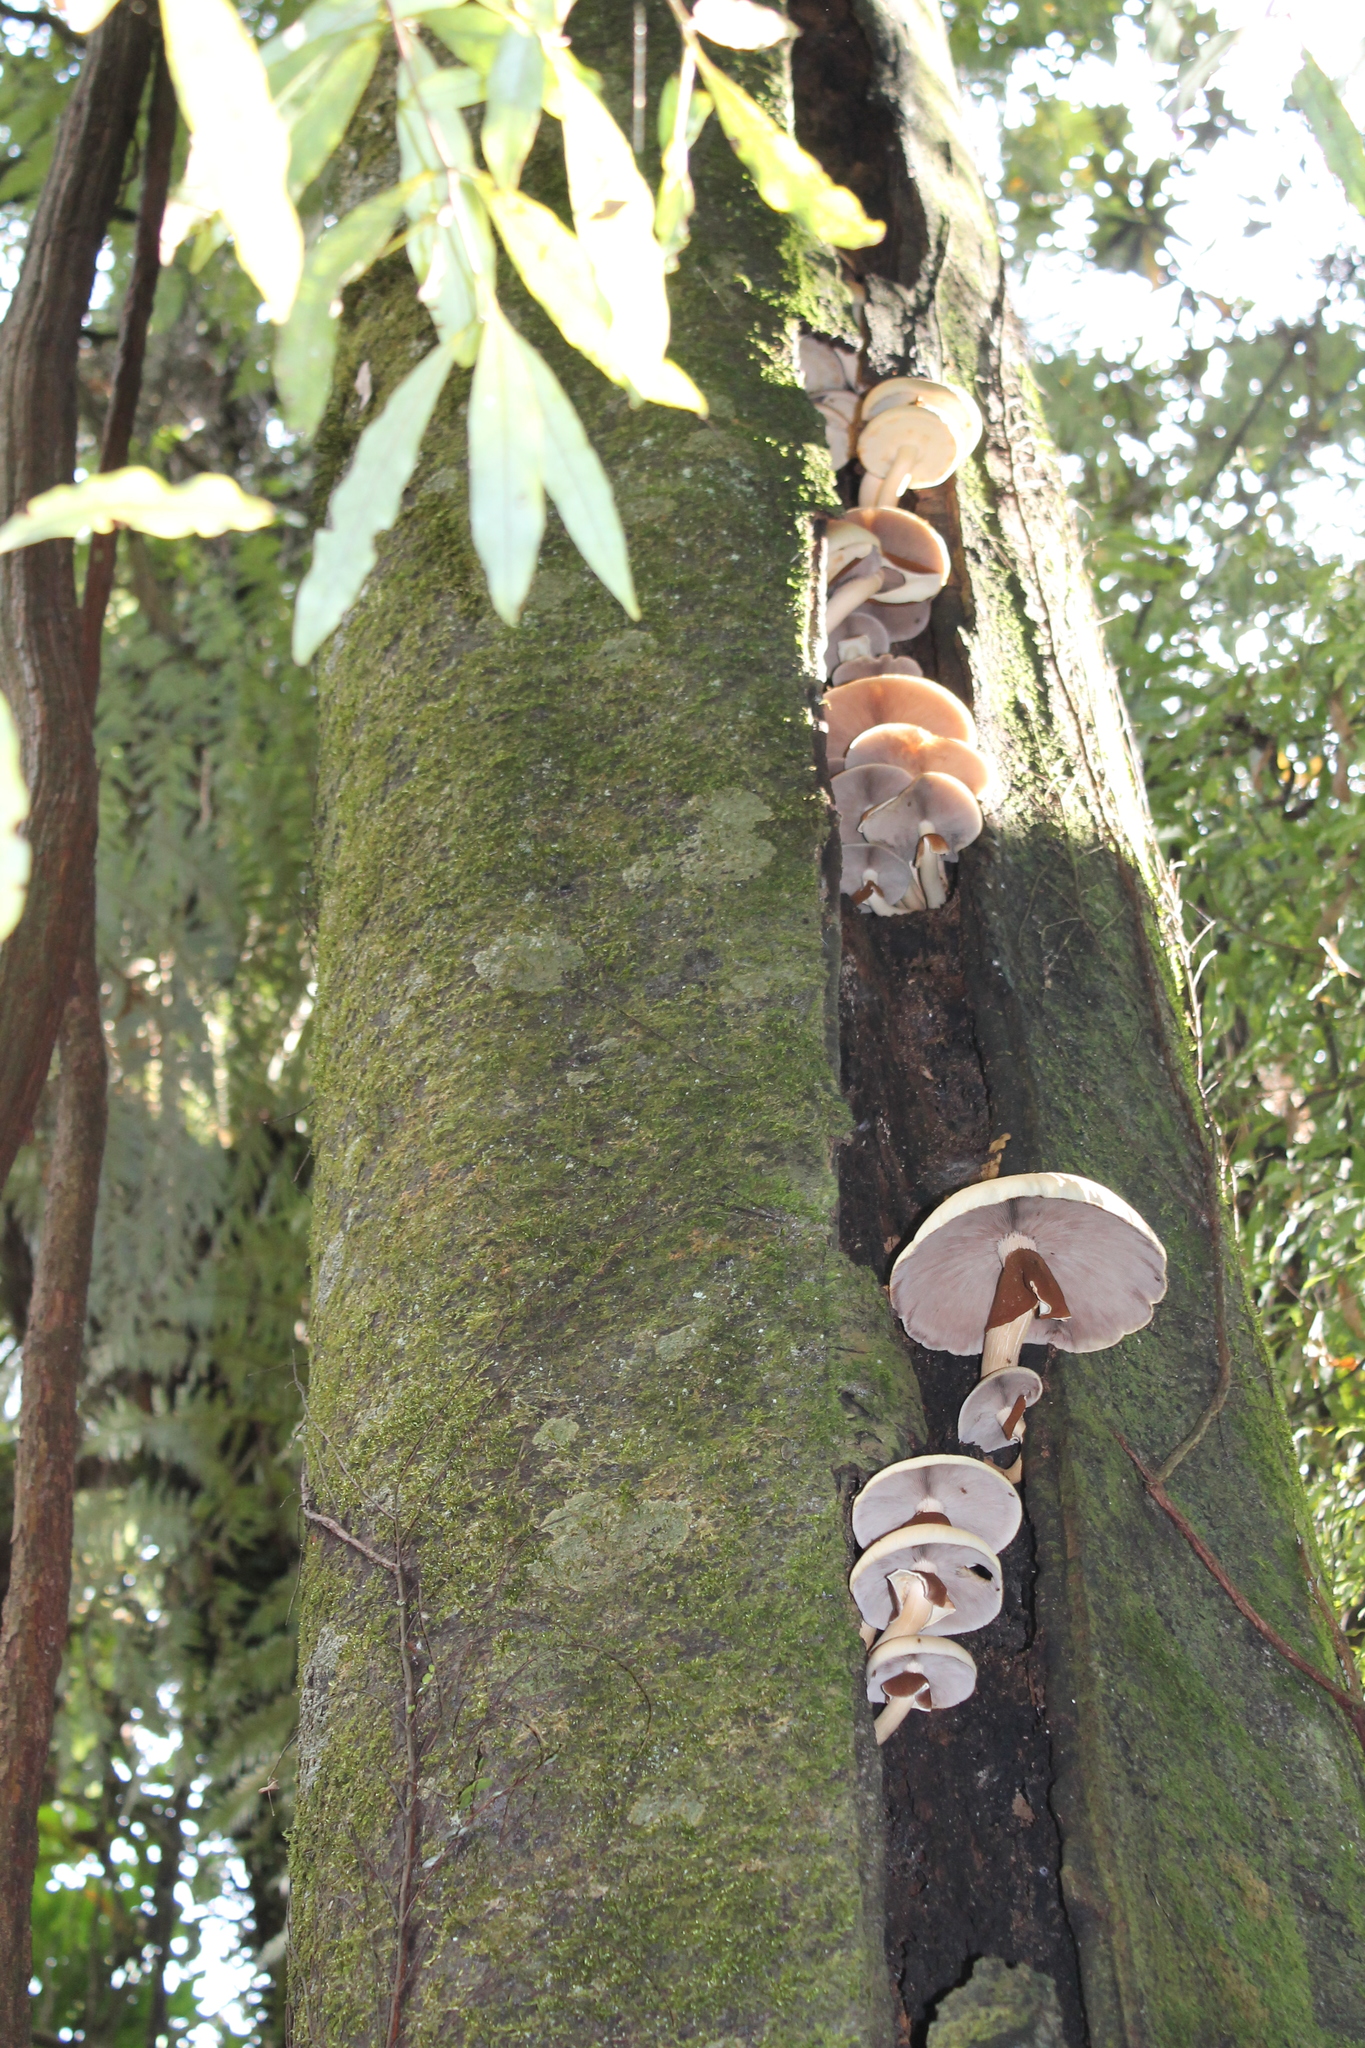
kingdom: Fungi
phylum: Basidiomycota
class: Agaricomycetes
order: Agaricales
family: Tubariaceae
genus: Cyclocybe
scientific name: Cyclocybe parasitica
